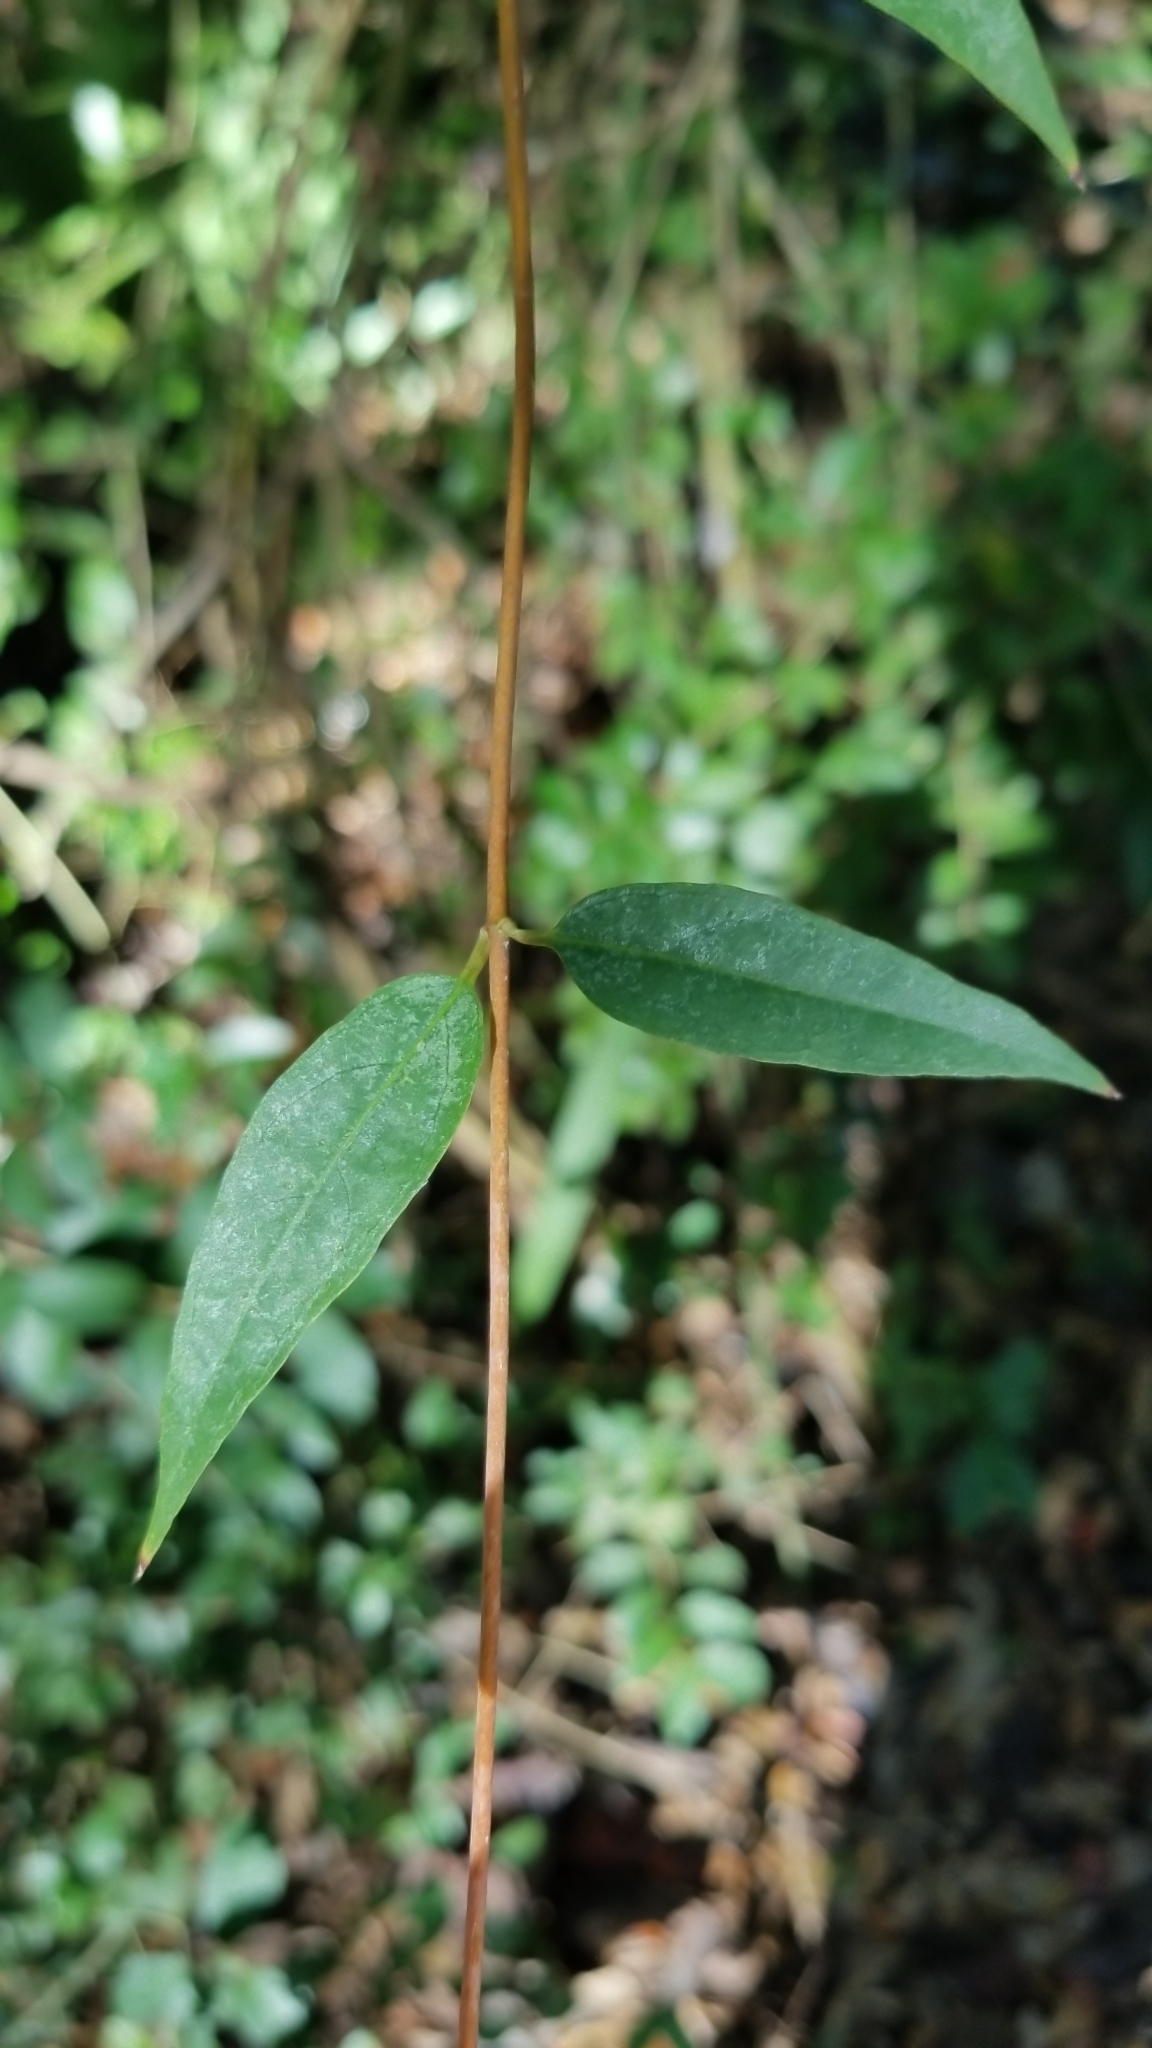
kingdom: Plantae
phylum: Tracheophyta
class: Magnoliopsida
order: Gentianales
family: Gelsemiaceae
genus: Gelsemium
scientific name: Gelsemium sempervirens
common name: Carolina-jasmine
